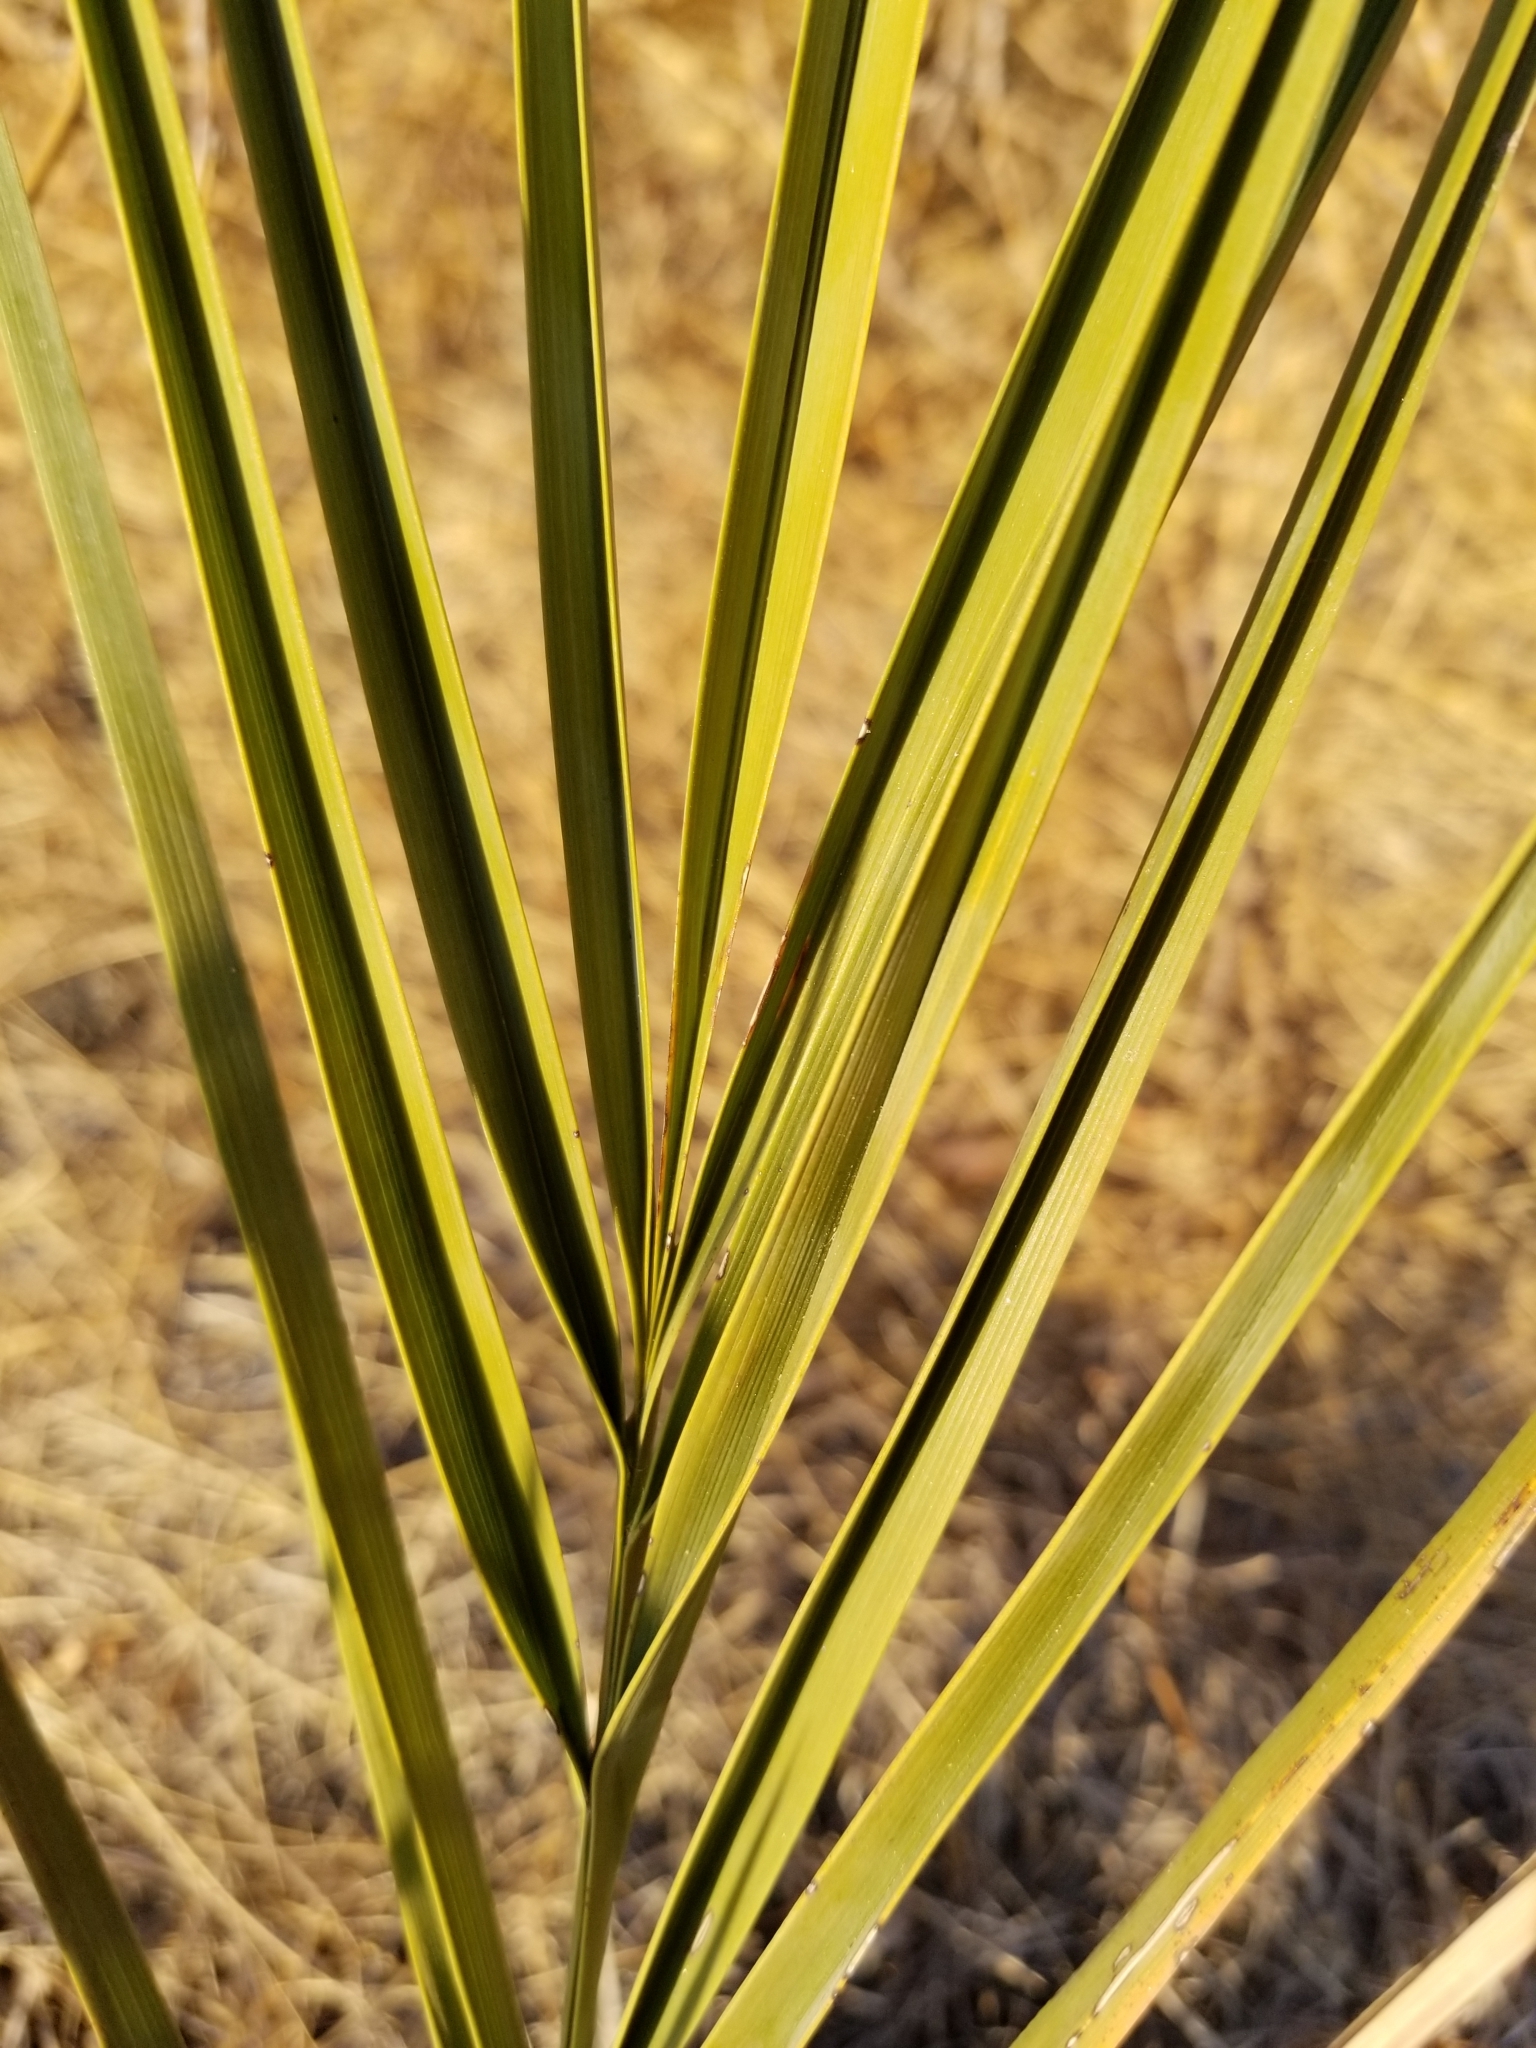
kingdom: Plantae
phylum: Tracheophyta
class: Liliopsida
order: Arecales
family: Arecaceae
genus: Phoenix
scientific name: Phoenix dactylifera
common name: Date palm
